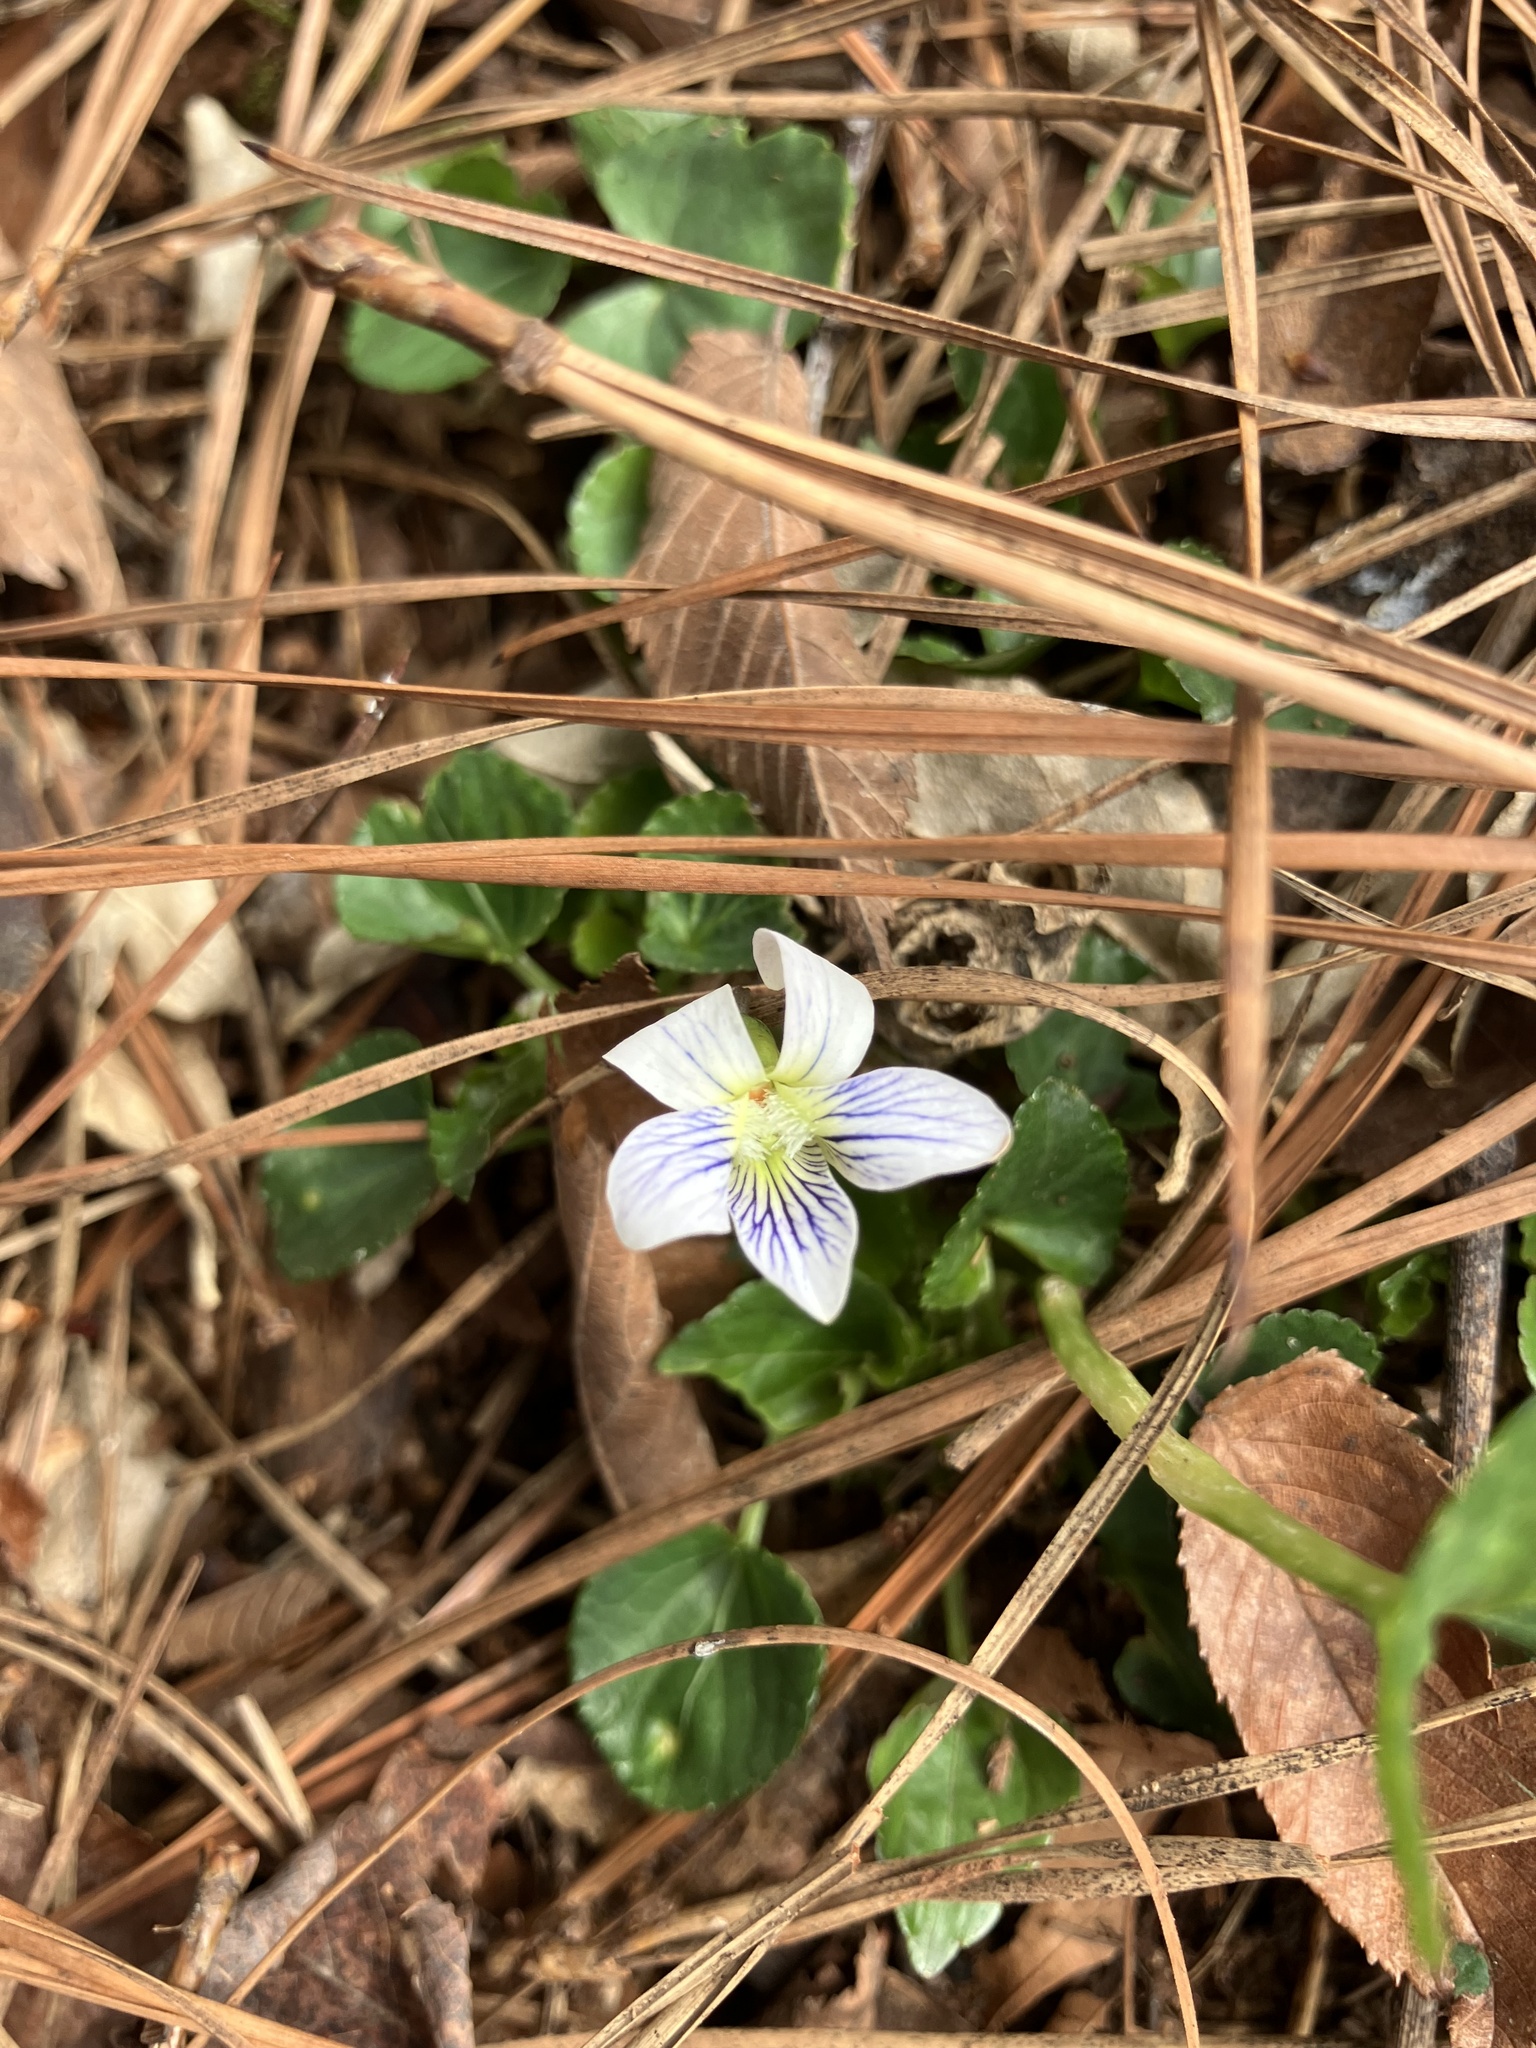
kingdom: Plantae
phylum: Tracheophyta
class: Magnoliopsida
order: Malpighiales
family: Violaceae
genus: Viola
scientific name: Viola communis
